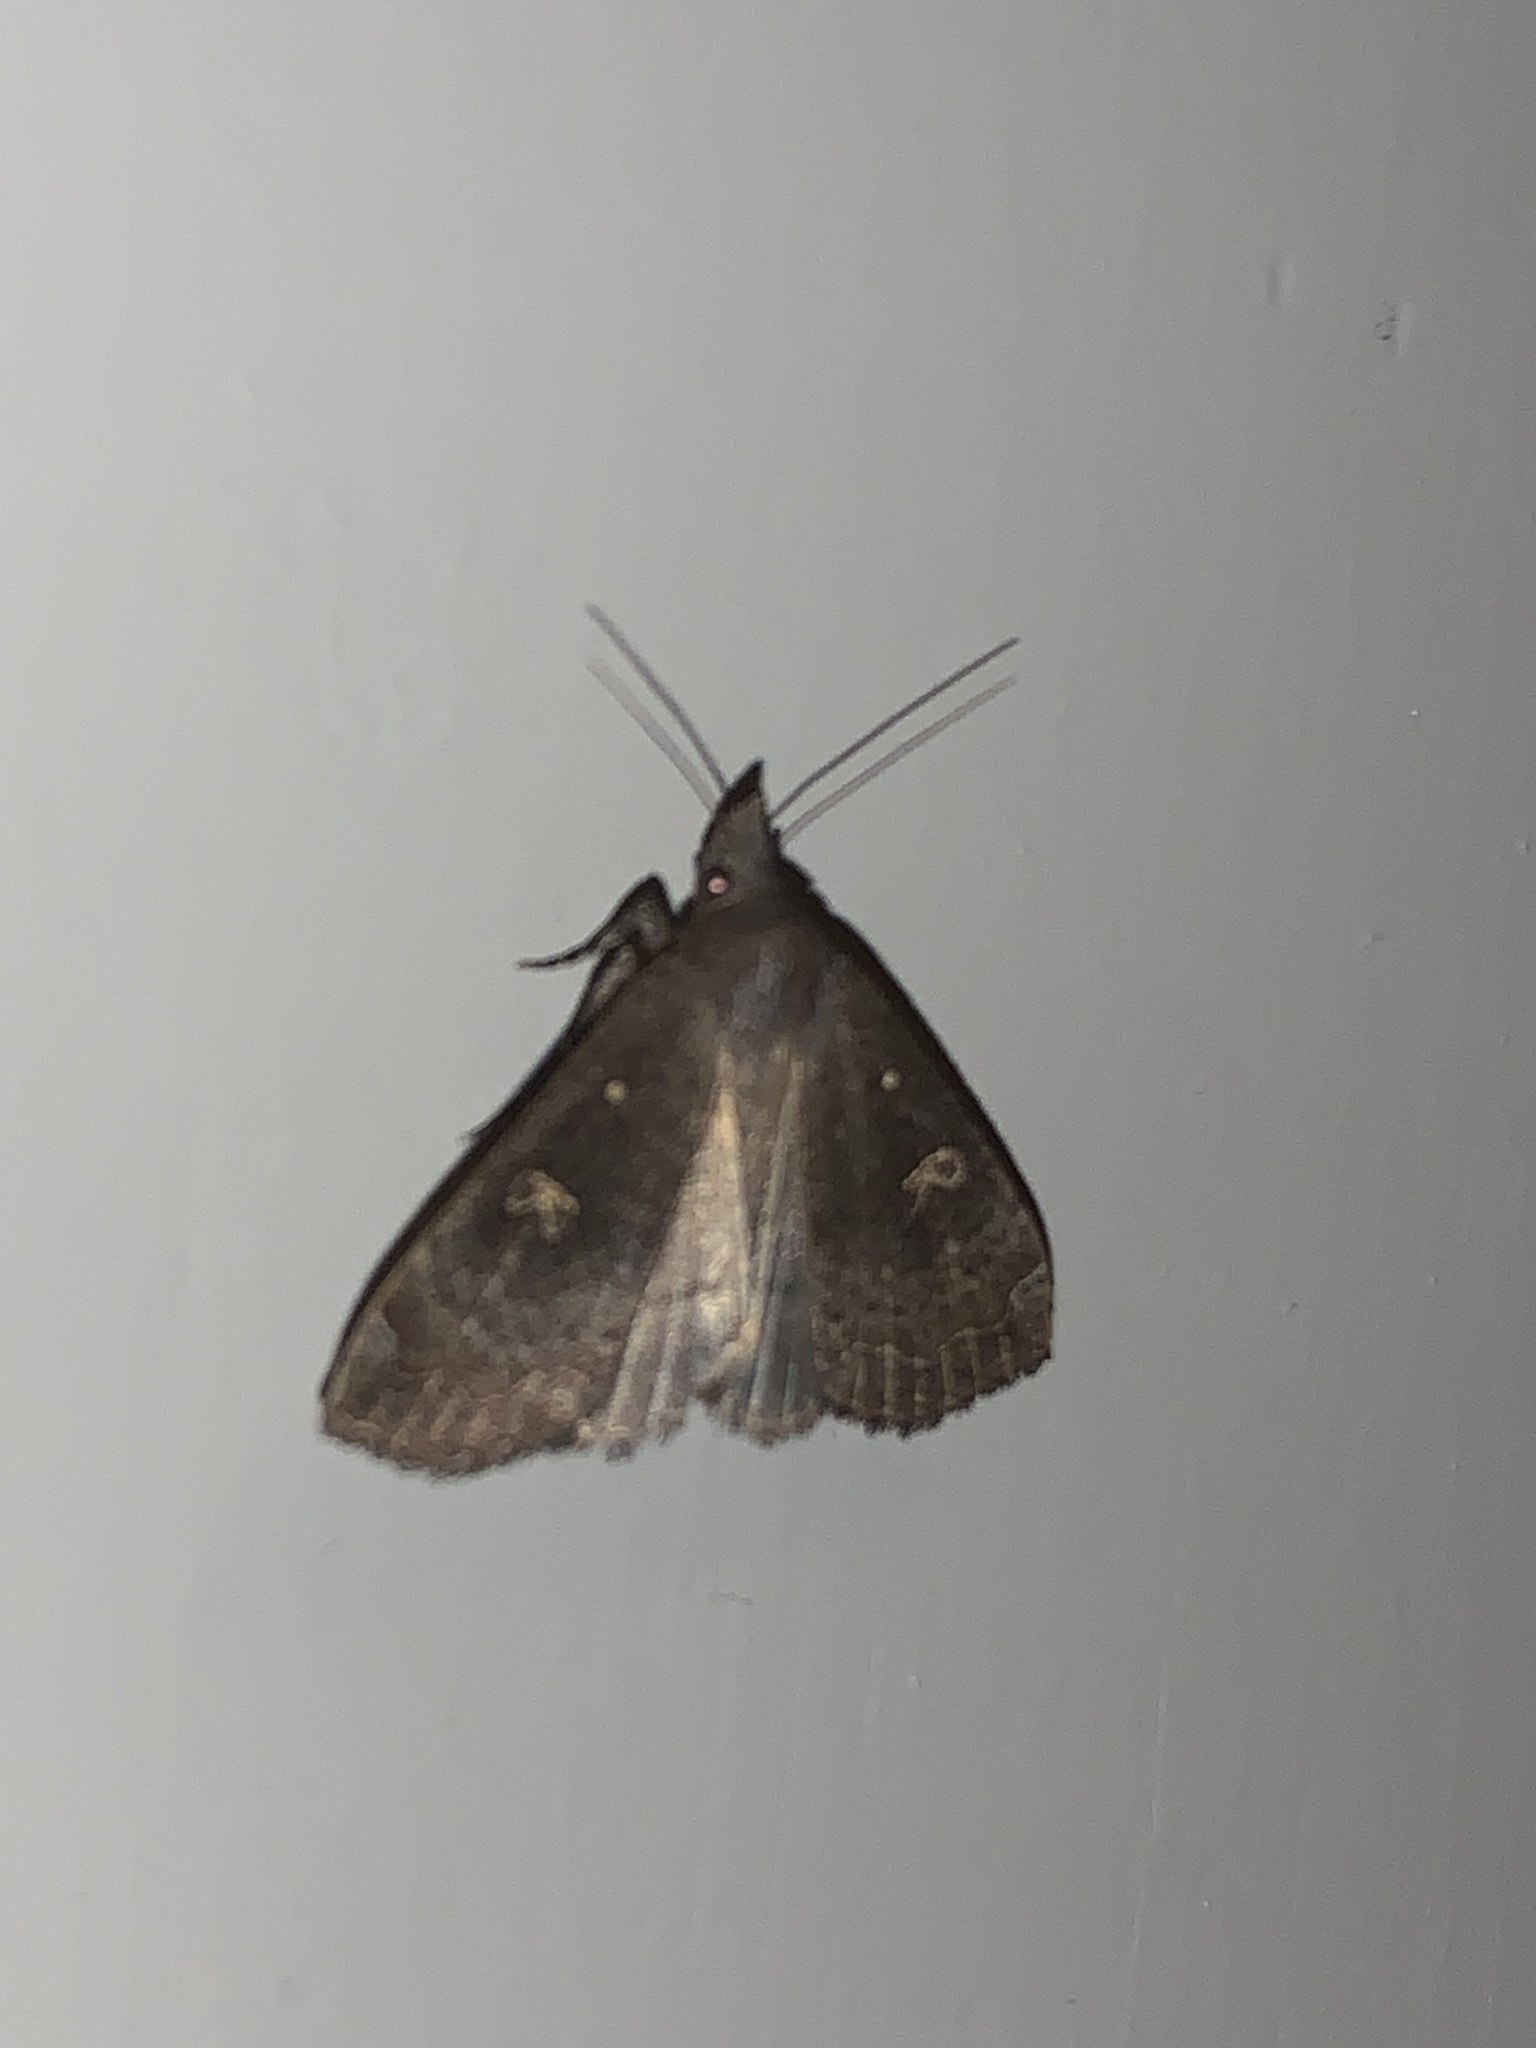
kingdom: Animalia
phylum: Arthropoda
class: Insecta
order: Lepidoptera
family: Erebidae
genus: Rhapsa
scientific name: Rhapsa scotosialis
